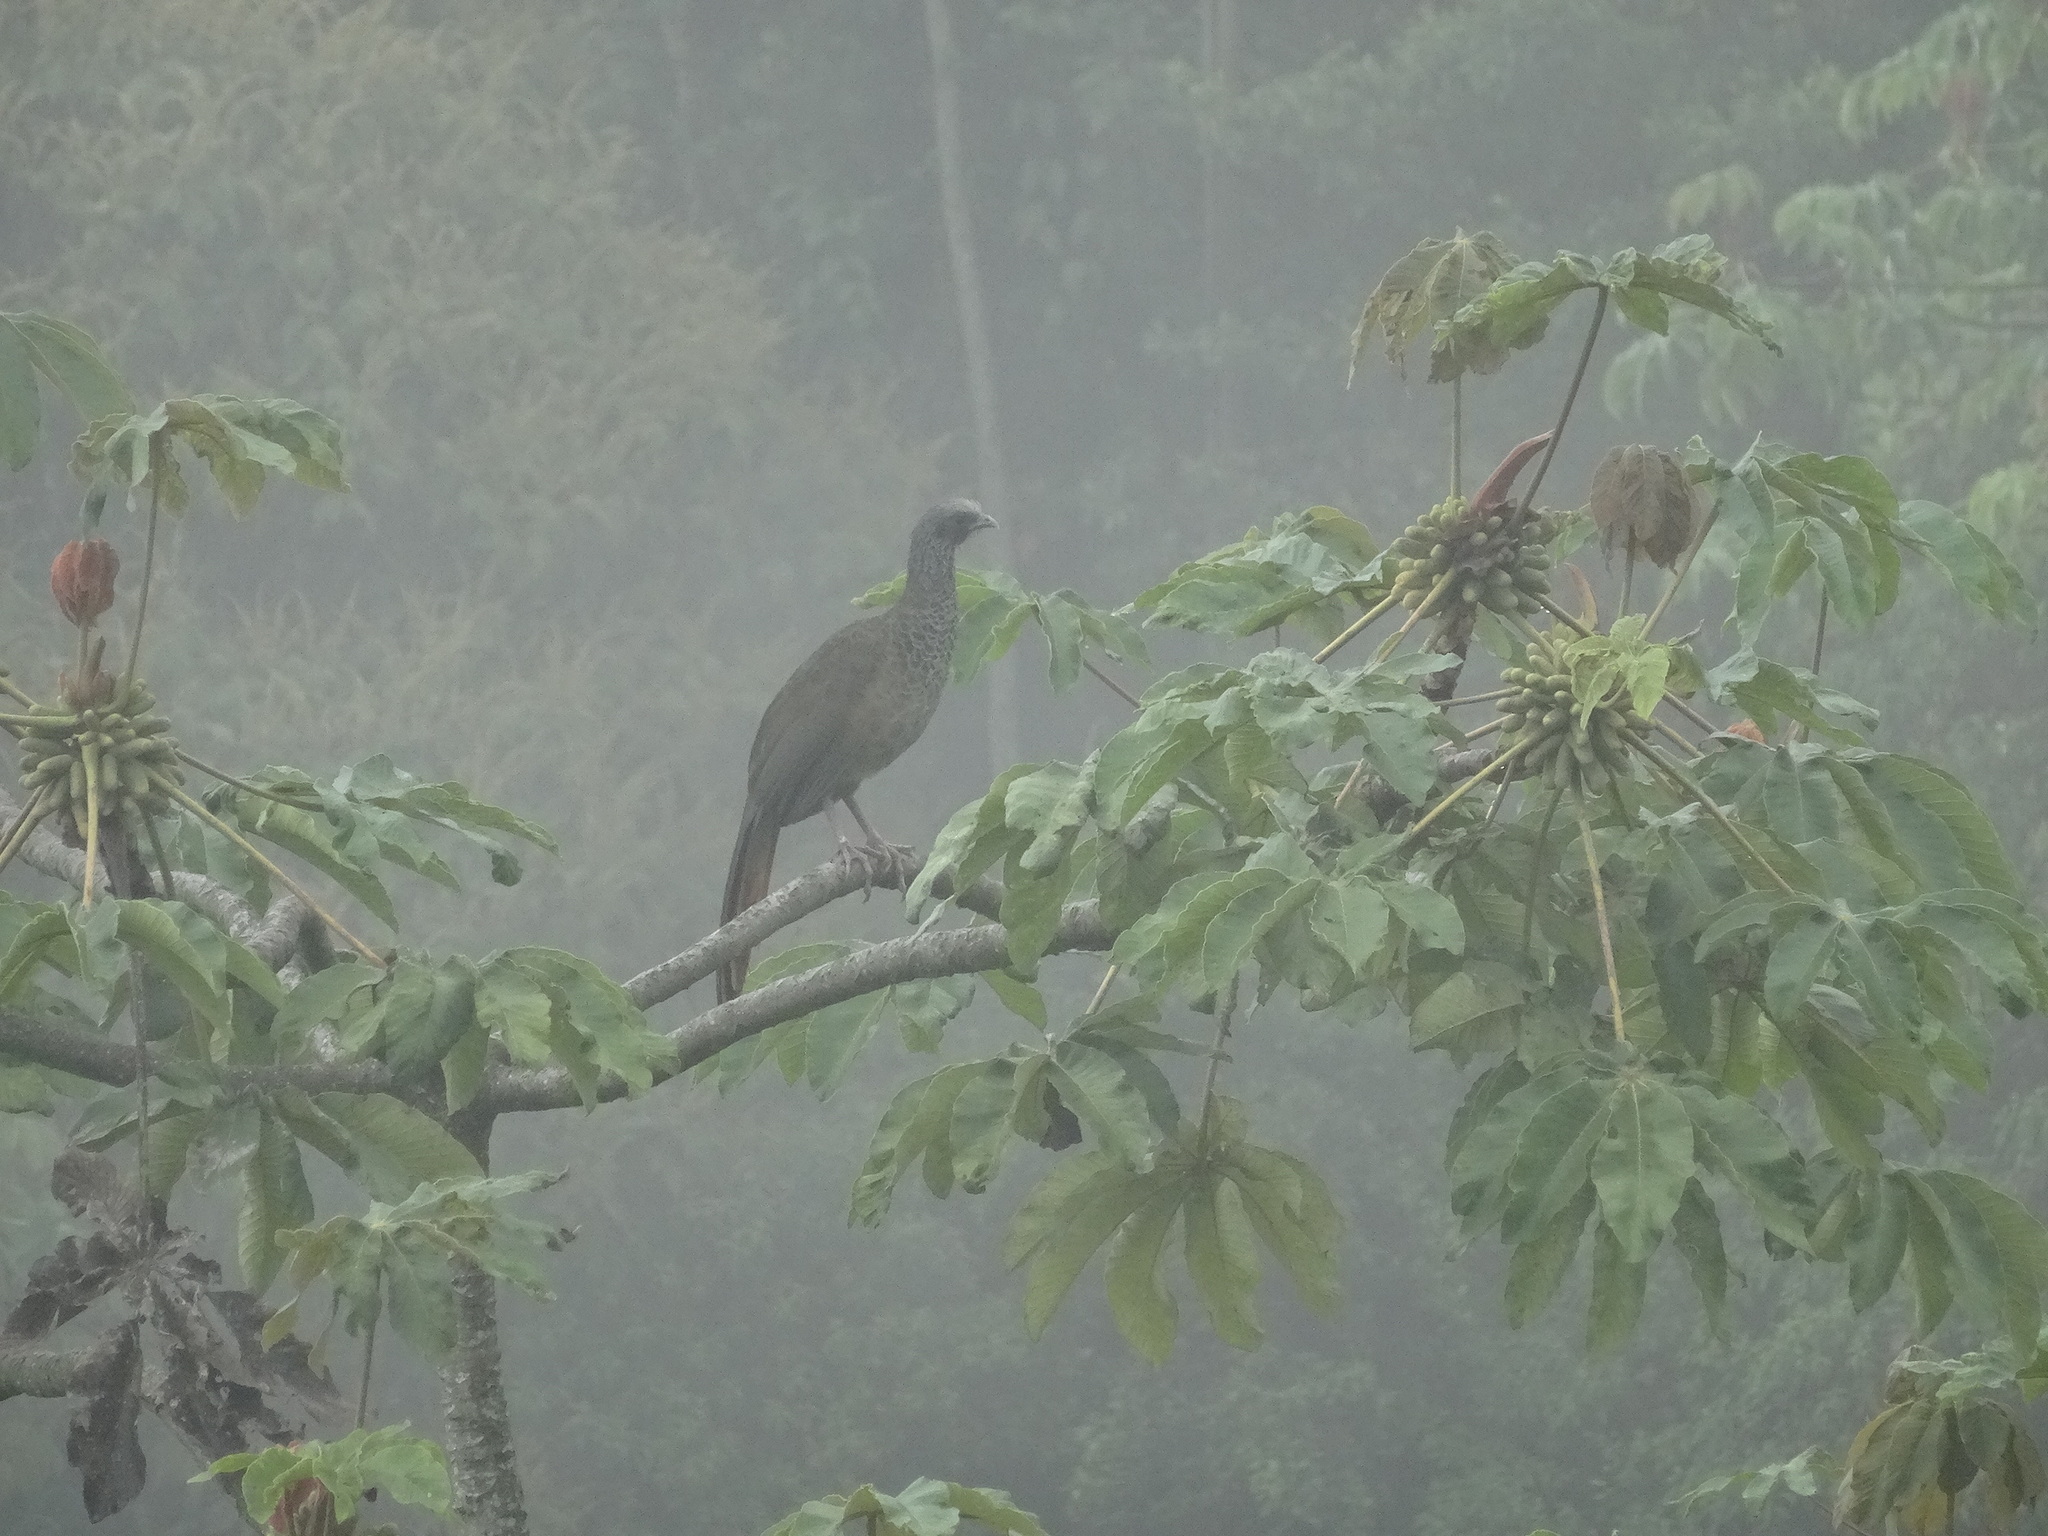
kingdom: Animalia
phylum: Chordata
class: Aves
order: Galliformes
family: Cracidae
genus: Ortalis
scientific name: Ortalis columbiana
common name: Colombian chachalaca
